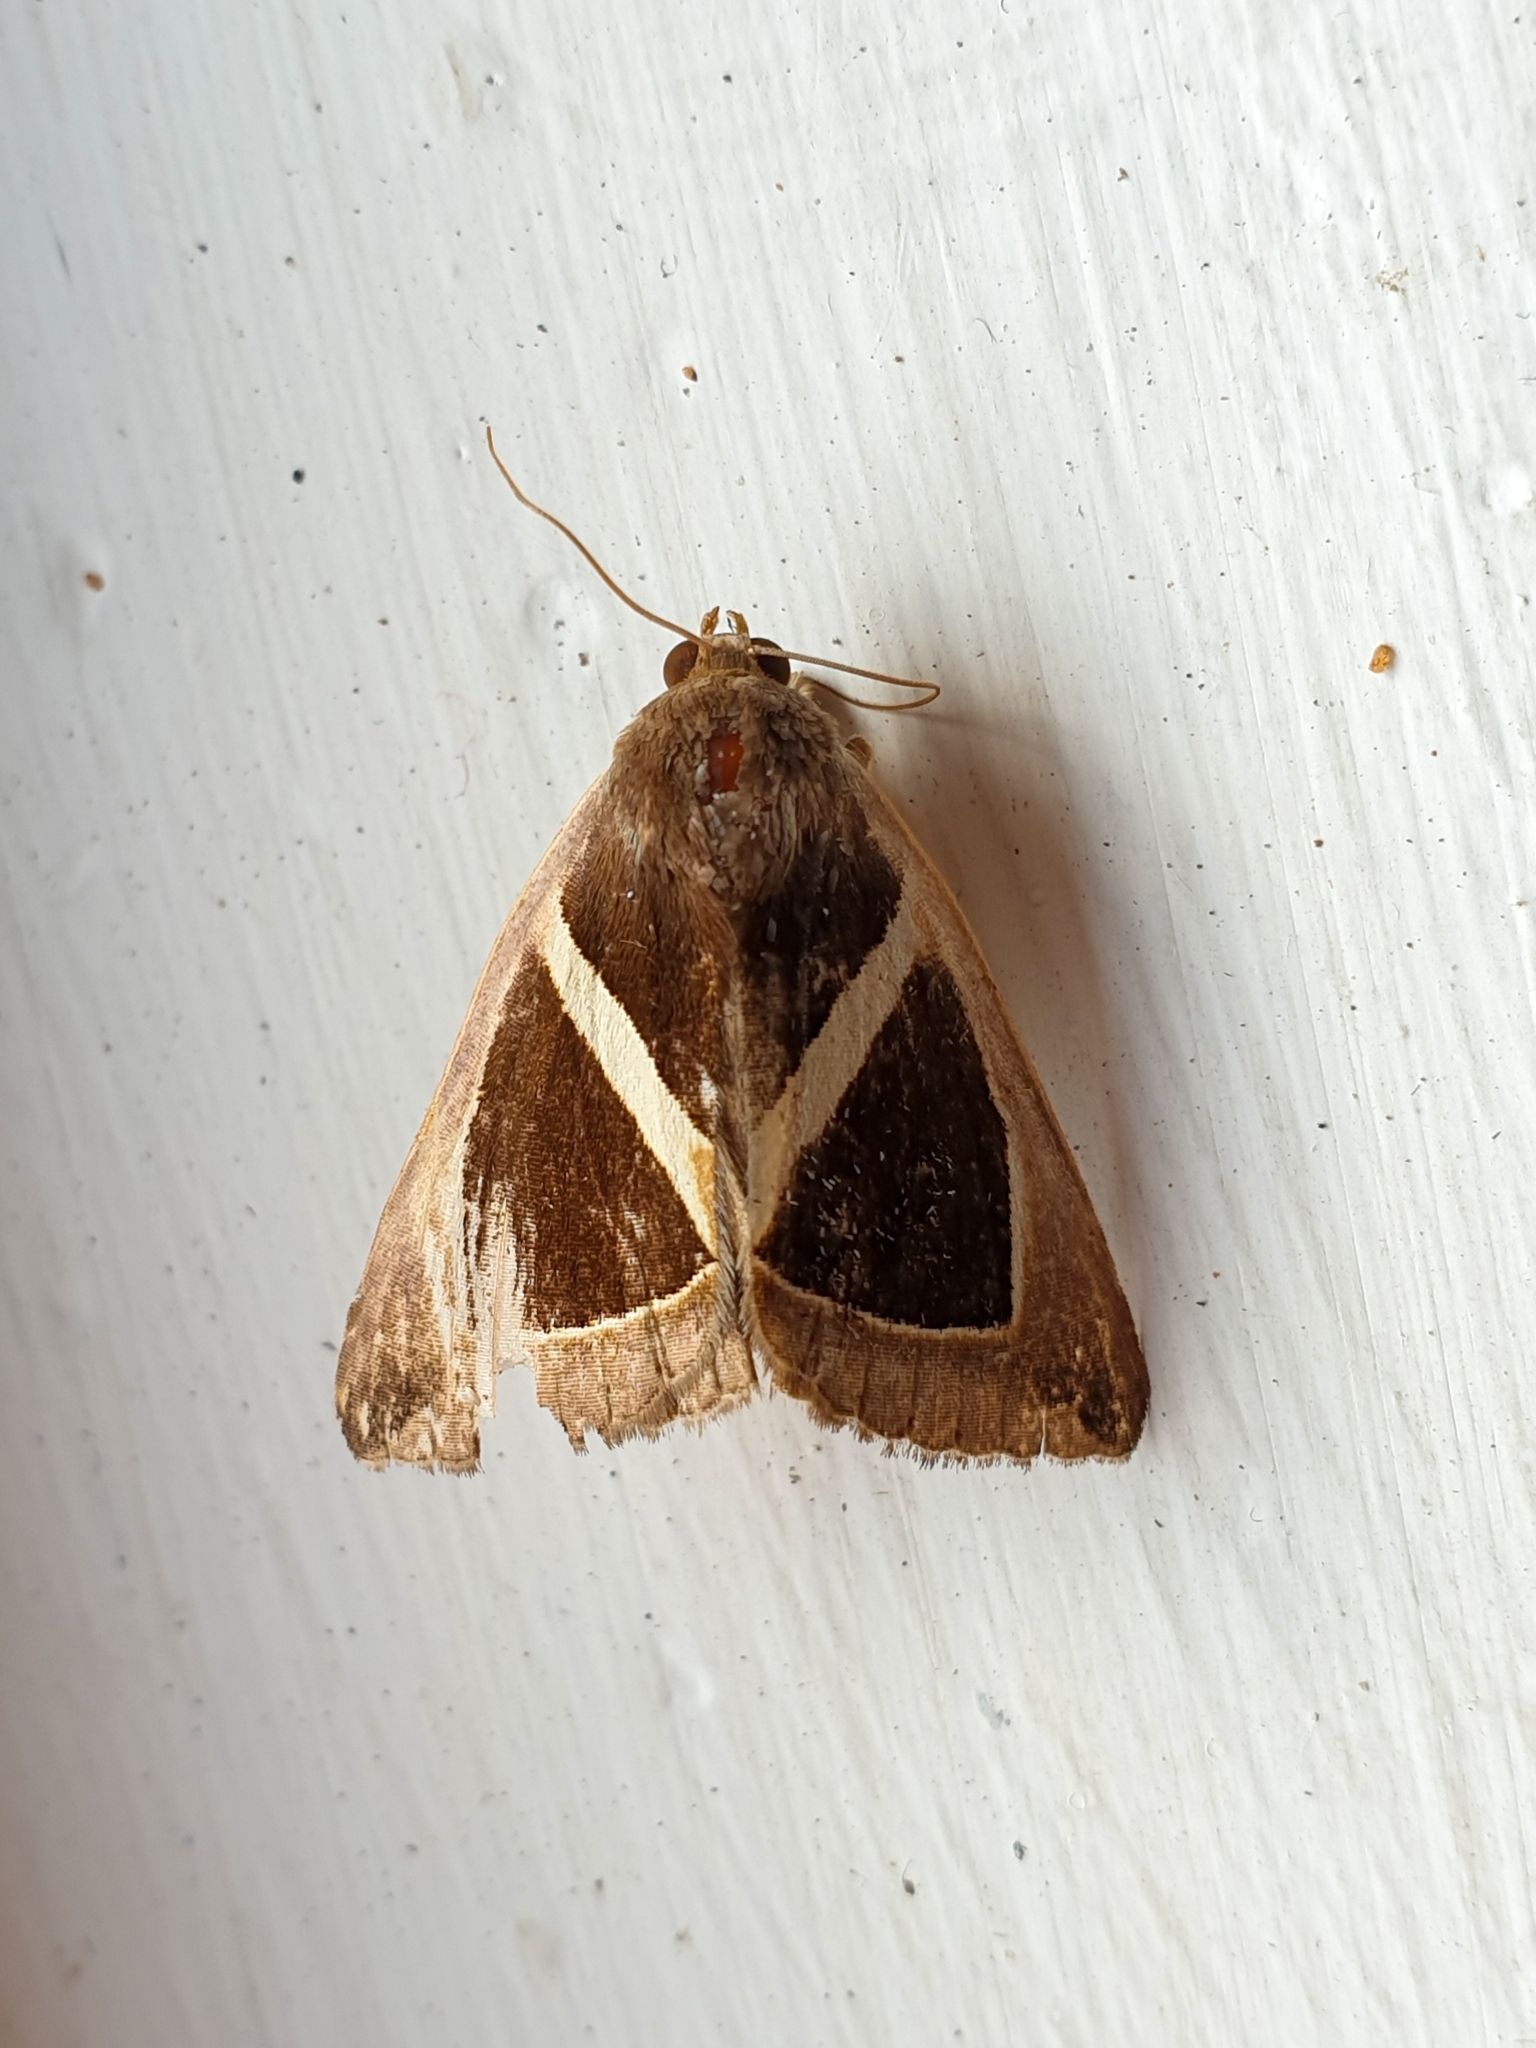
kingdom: Animalia
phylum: Arthropoda
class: Insecta
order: Lepidoptera
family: Erebidae
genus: Chalciope
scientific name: Chalciope mygdon
